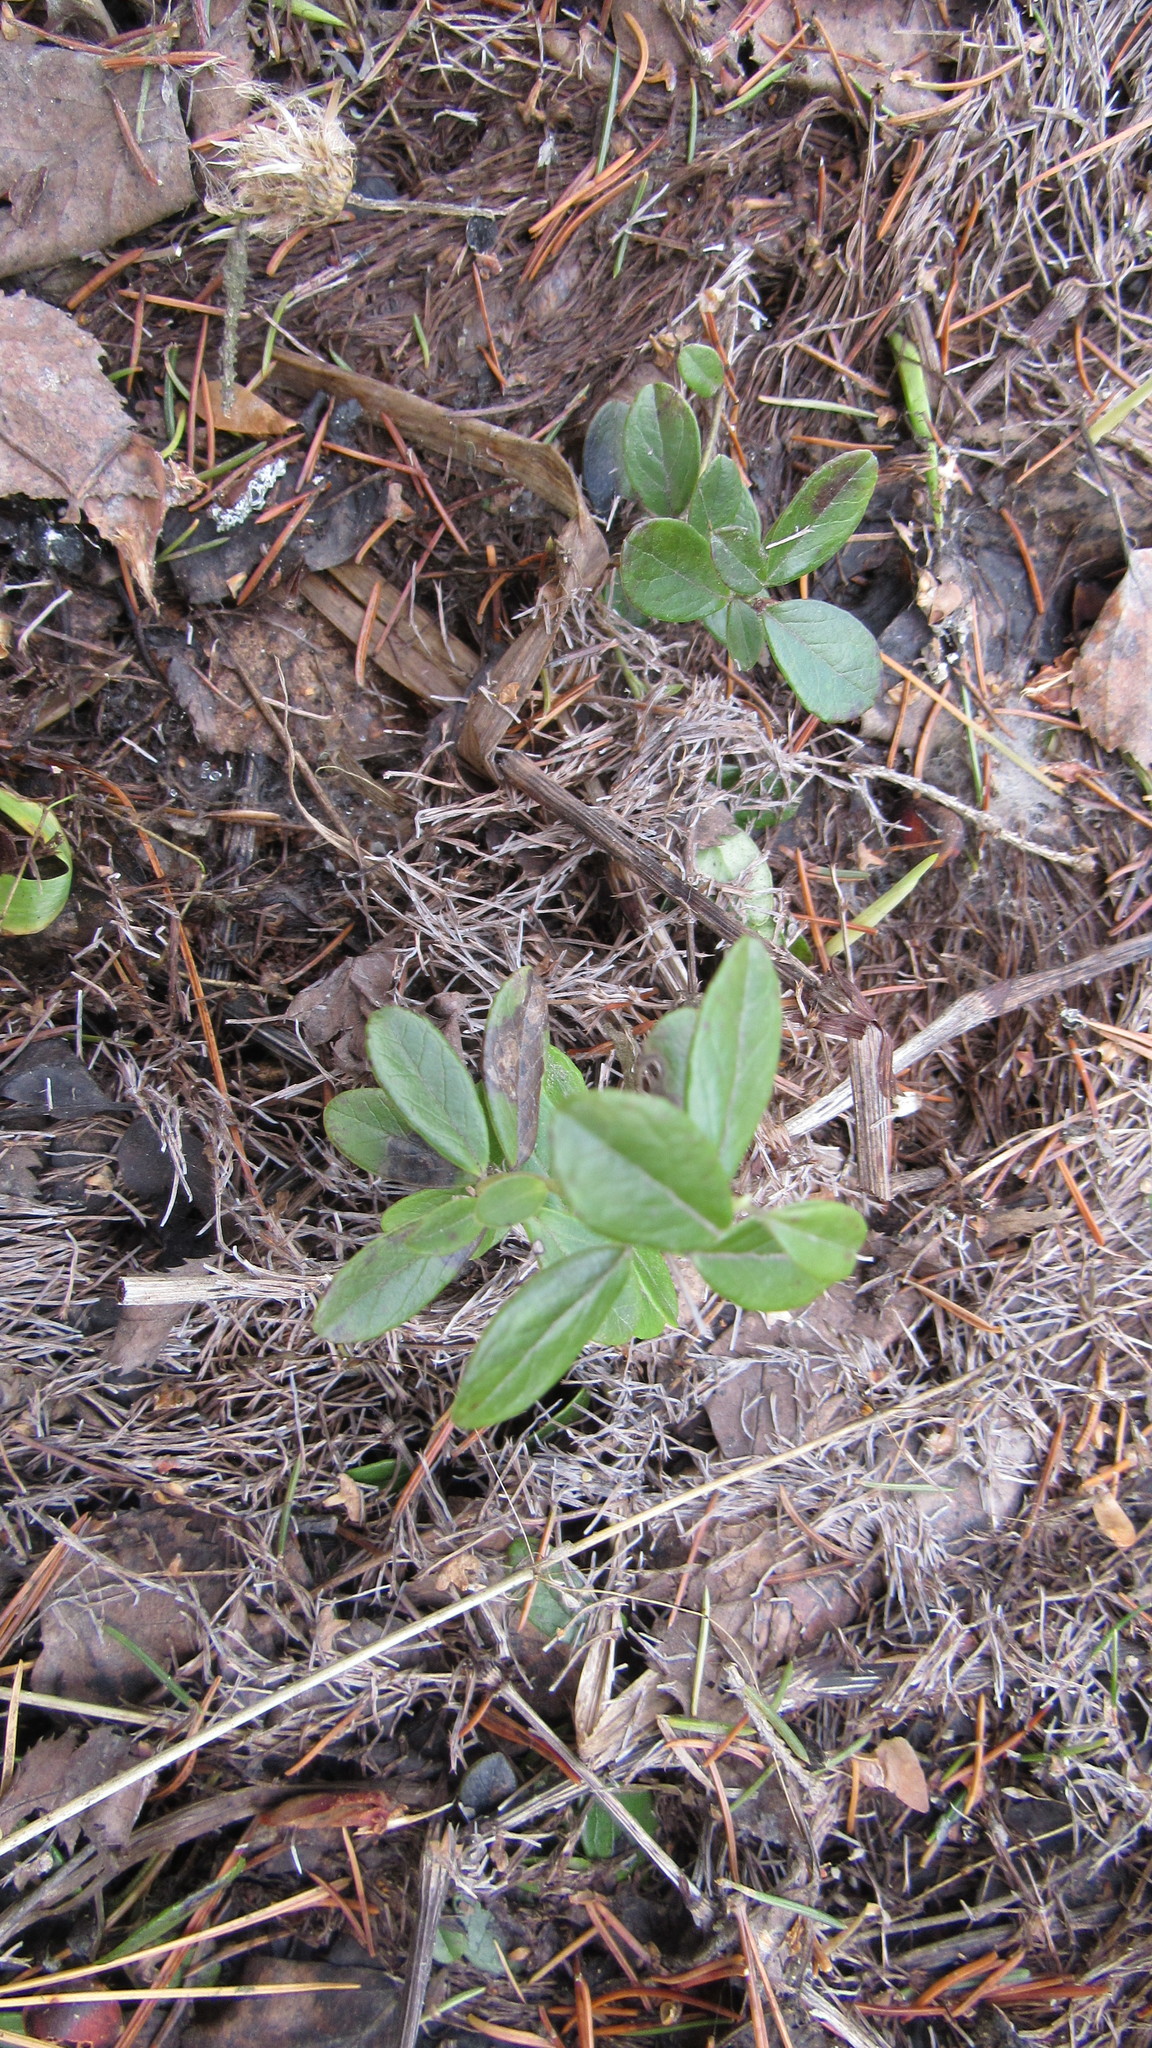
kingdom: Plantae
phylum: Tracheophyta
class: Magnoliopsida
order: Ericales
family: Ericaceae
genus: Vaccinium
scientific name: Vaccinium vitis-idaea
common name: Cowberry
